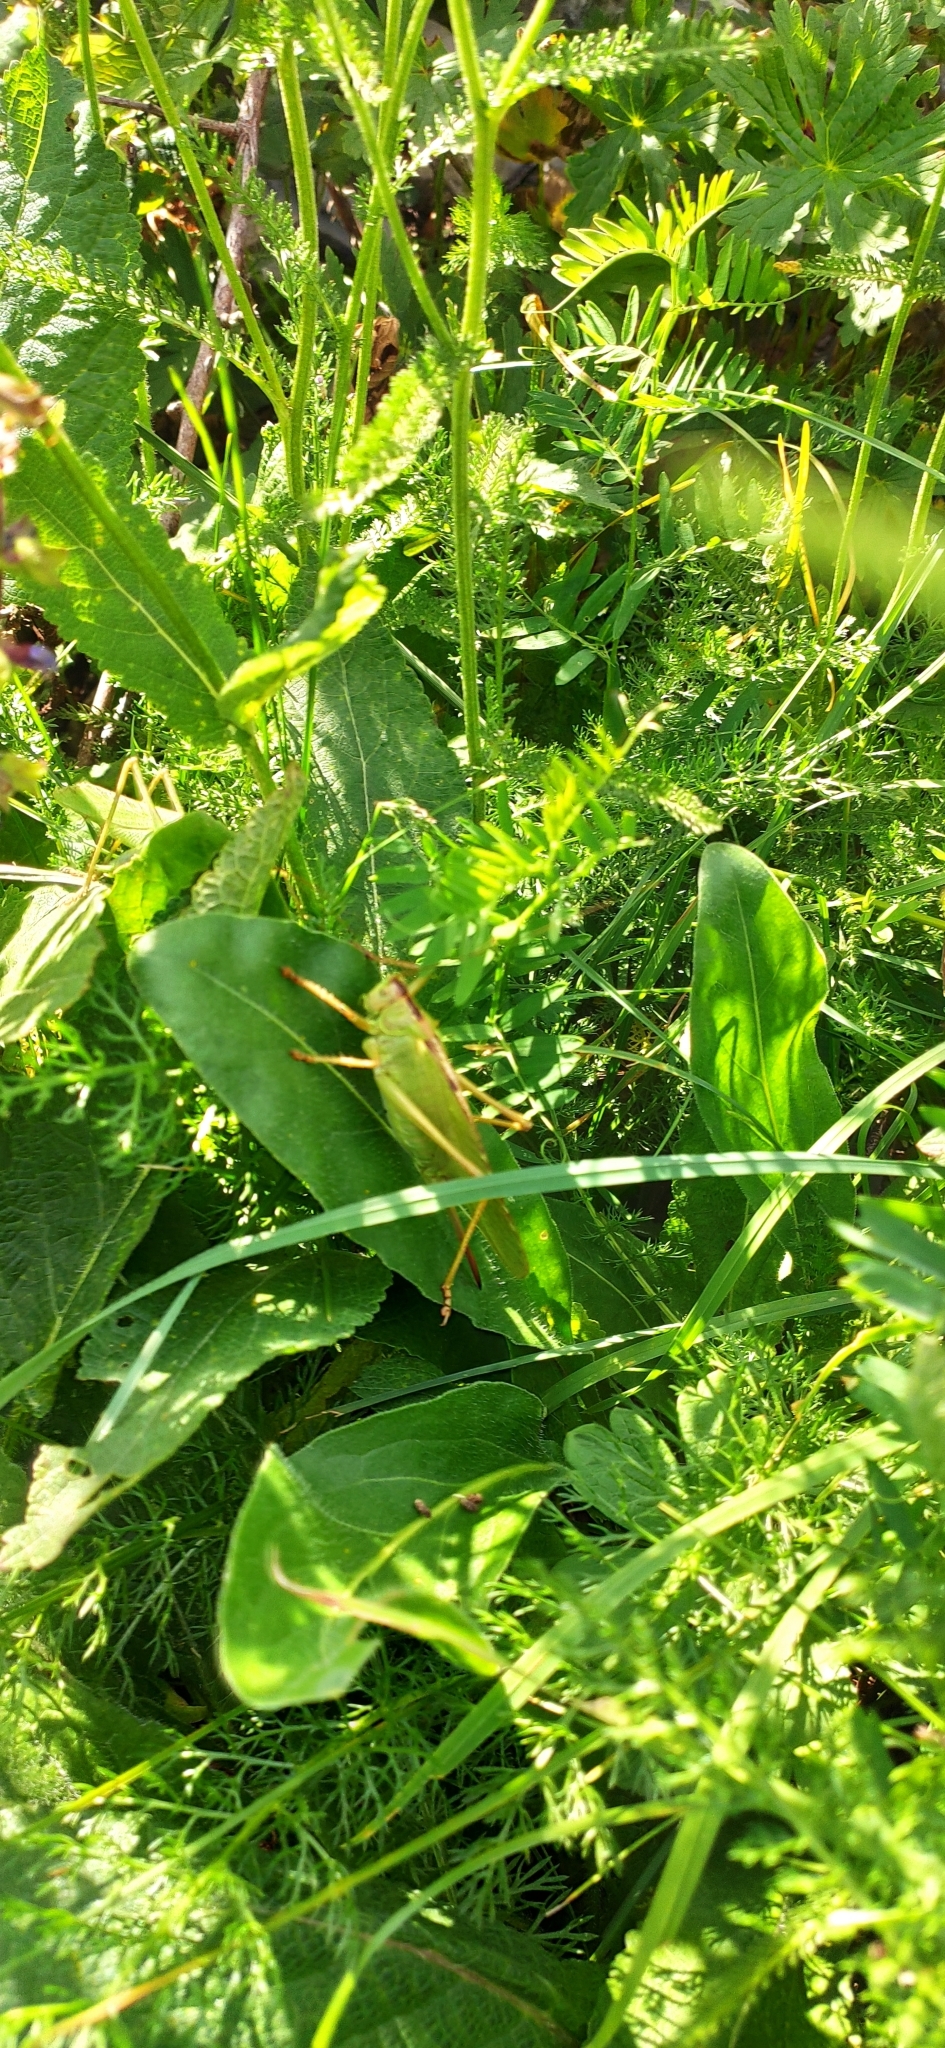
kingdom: Animalia
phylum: Arthropoda
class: Insecta
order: Orthoptera
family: Tettigoniidae
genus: Tettigonia
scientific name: Tettigonia viridissima
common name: Great green bush-cricket
